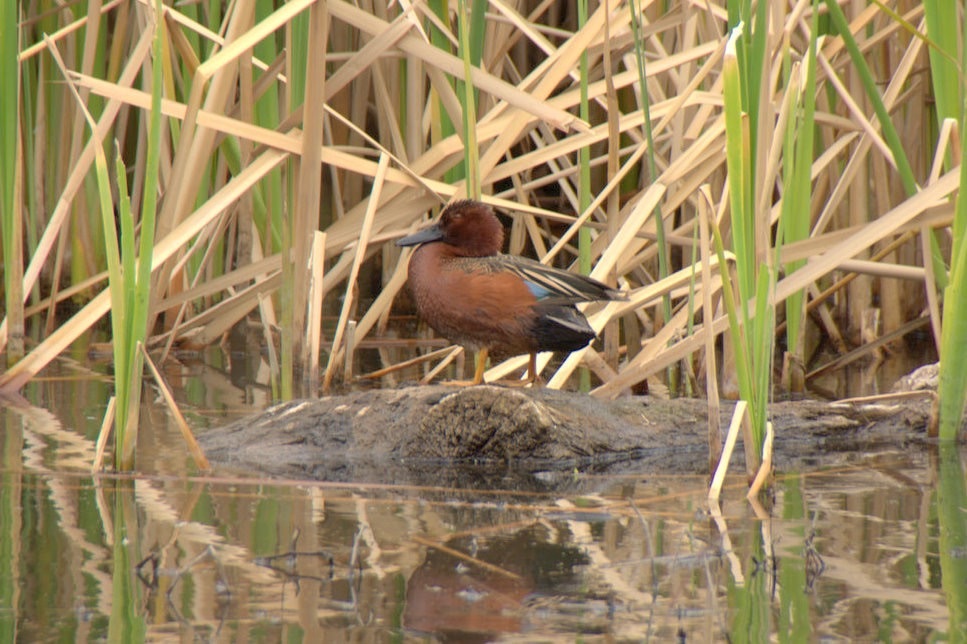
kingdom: Animalia
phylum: Chordata
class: Aves
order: Anseriformes
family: Anatidae
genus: Spatula
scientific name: Spatula cyanoptera
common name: Cinnamon teal
